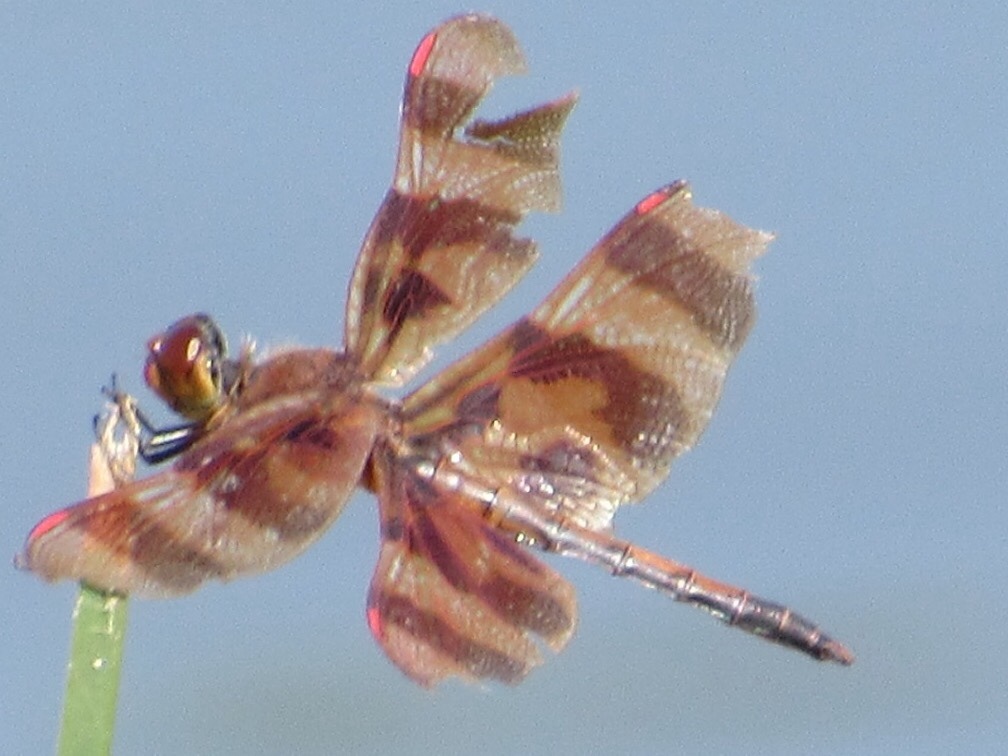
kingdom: Animalia
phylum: Arthropoda
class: Insecta
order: Odonata
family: Libellulidae
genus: Celithemis
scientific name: Celithemis eponina
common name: Halloween pennant
